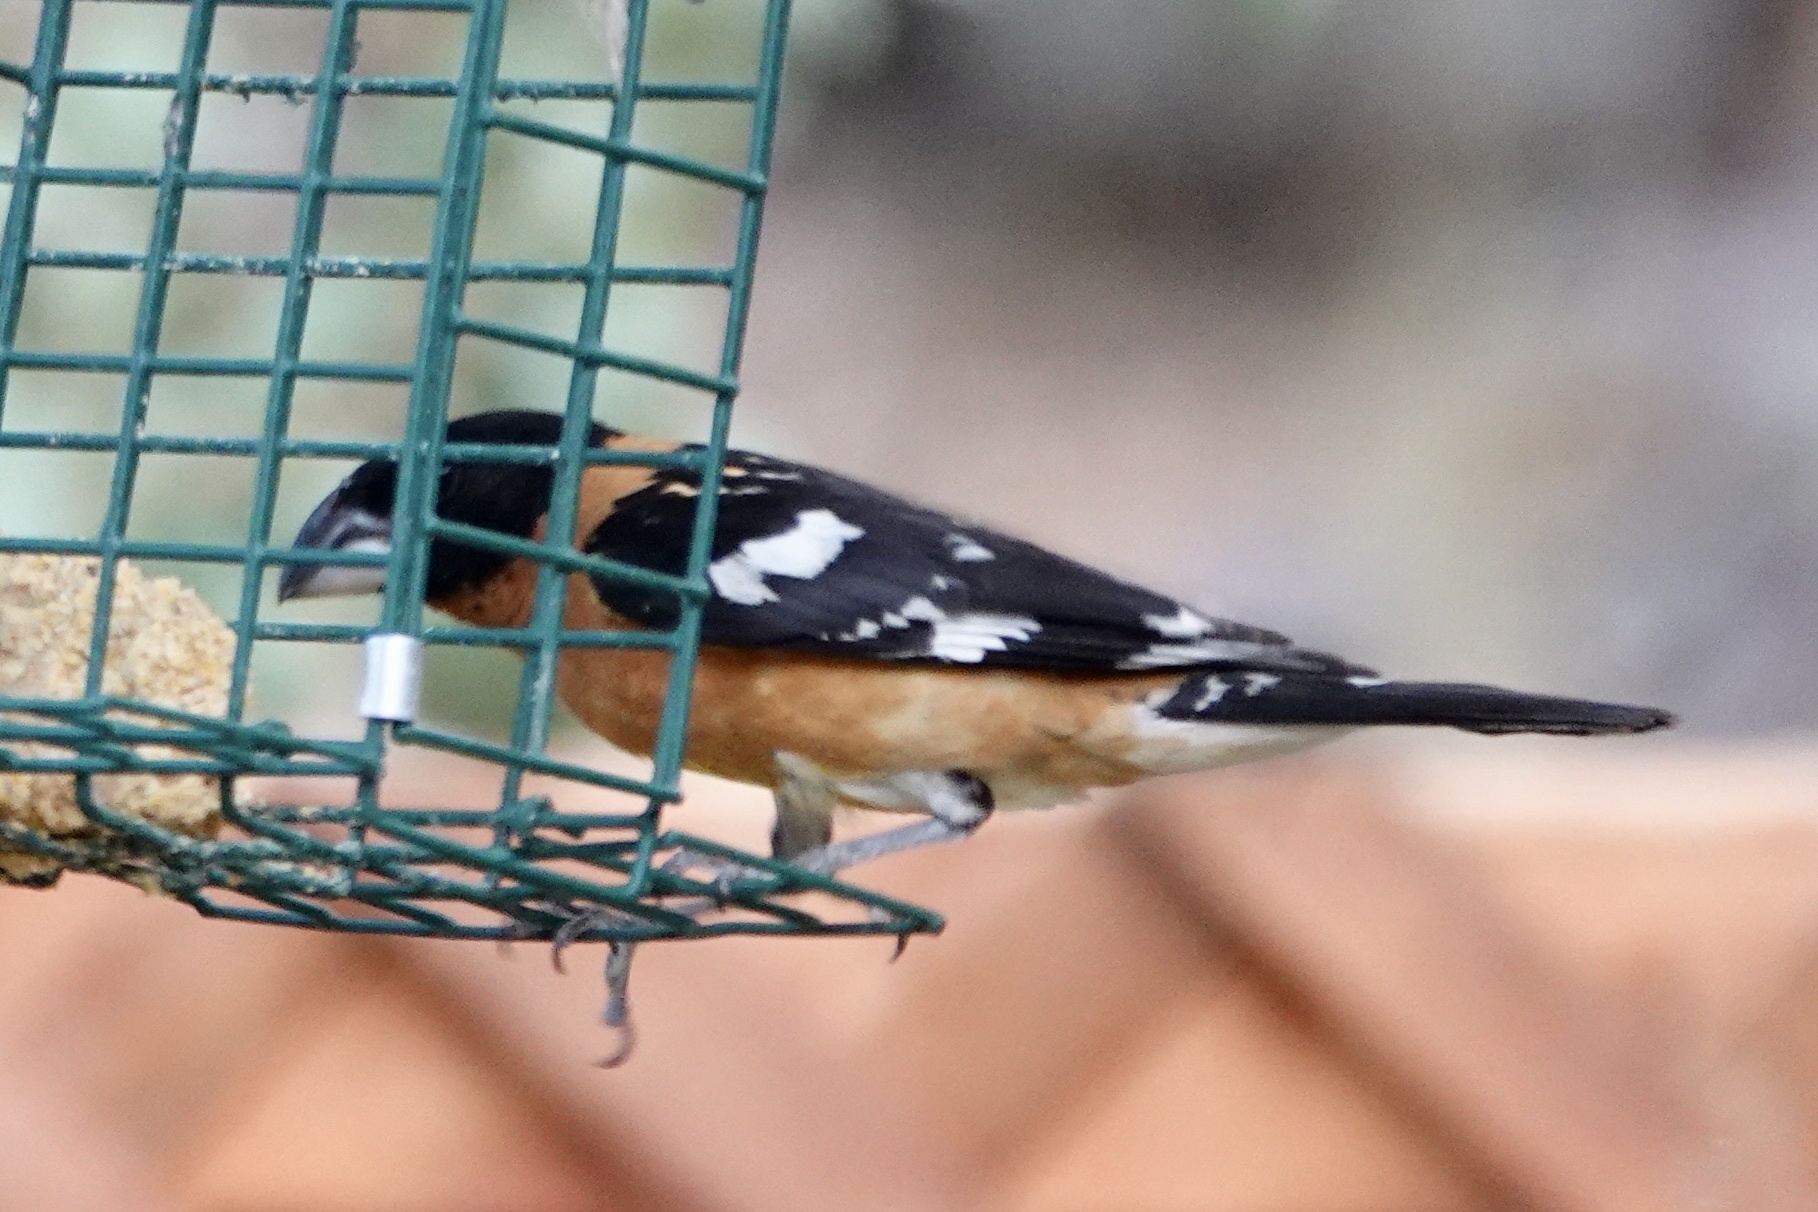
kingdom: Animalia
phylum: Chordata
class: Aves
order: Passeriformes
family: Cardinalidae
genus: Pheucticus
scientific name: Pheucticus melanocephalus
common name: Black-headed grosbeak
